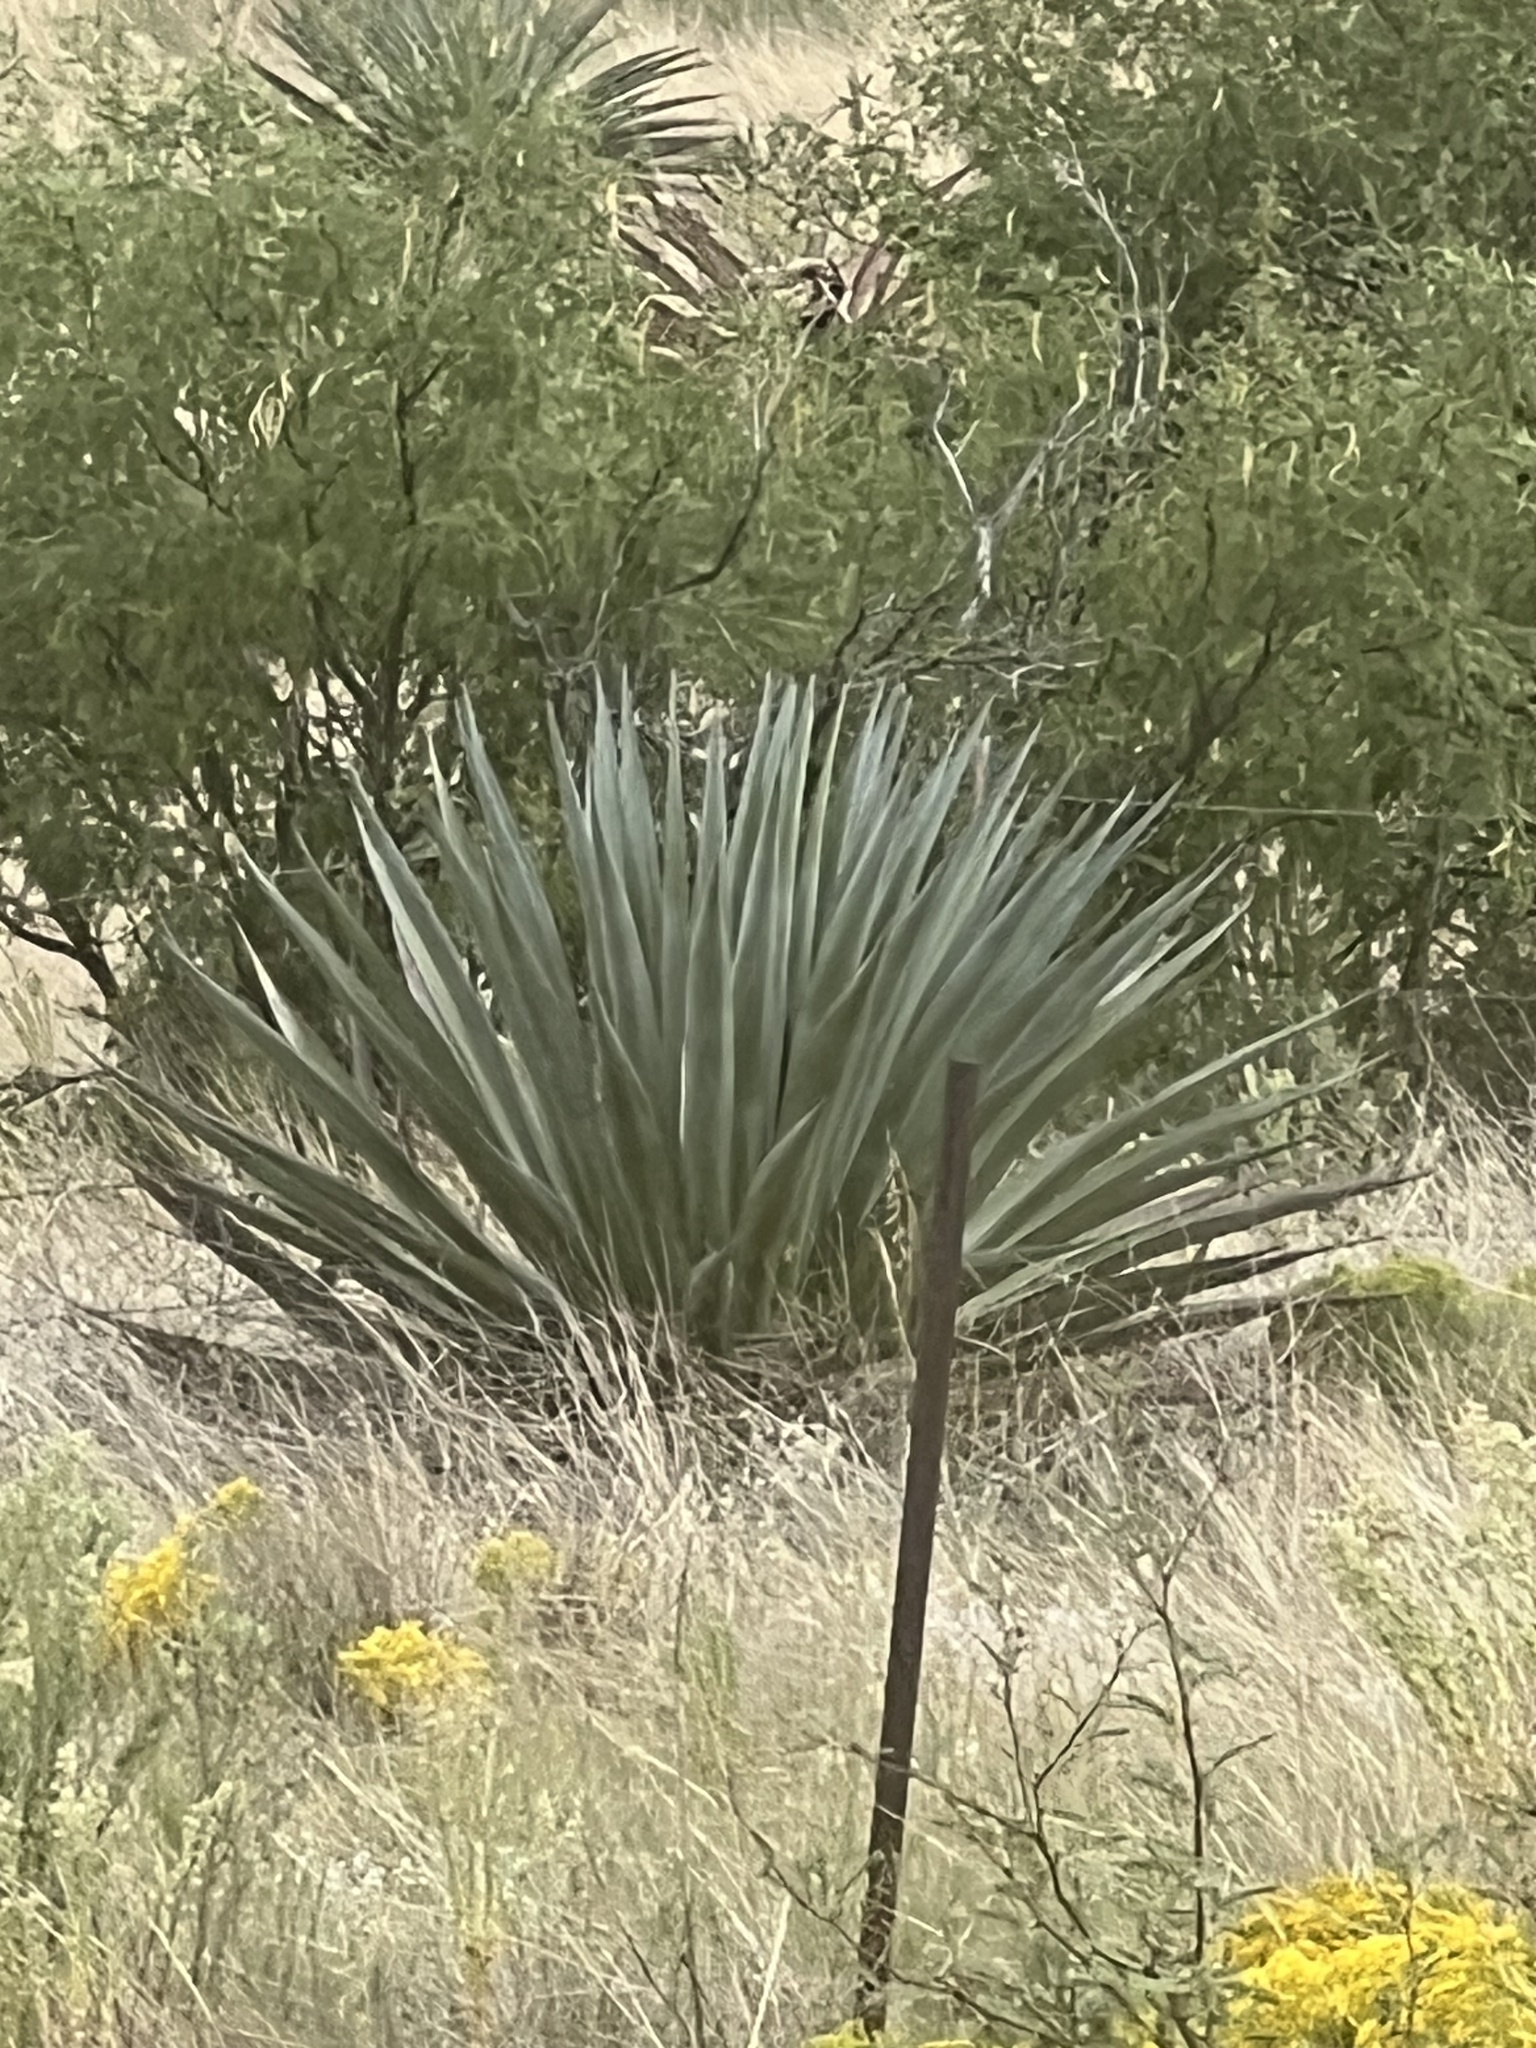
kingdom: Plantae
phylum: Tracheophyta
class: Liliopsida
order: Asparagales
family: Asparagaceae
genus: Agave
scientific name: Agave palmeri
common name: Palmer agave
